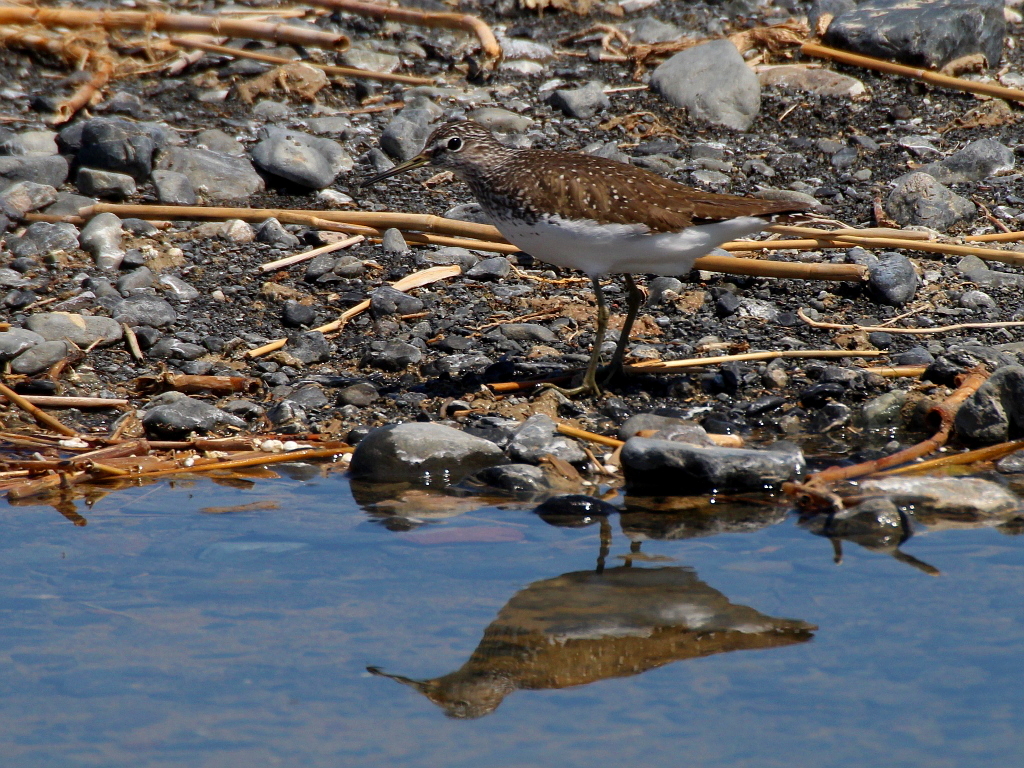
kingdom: Animalia
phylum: Chordata
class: Aves
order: Charadriiformes
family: Scolopacidae
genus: Tringa
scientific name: Tringa ochropus
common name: Green sandpiper
